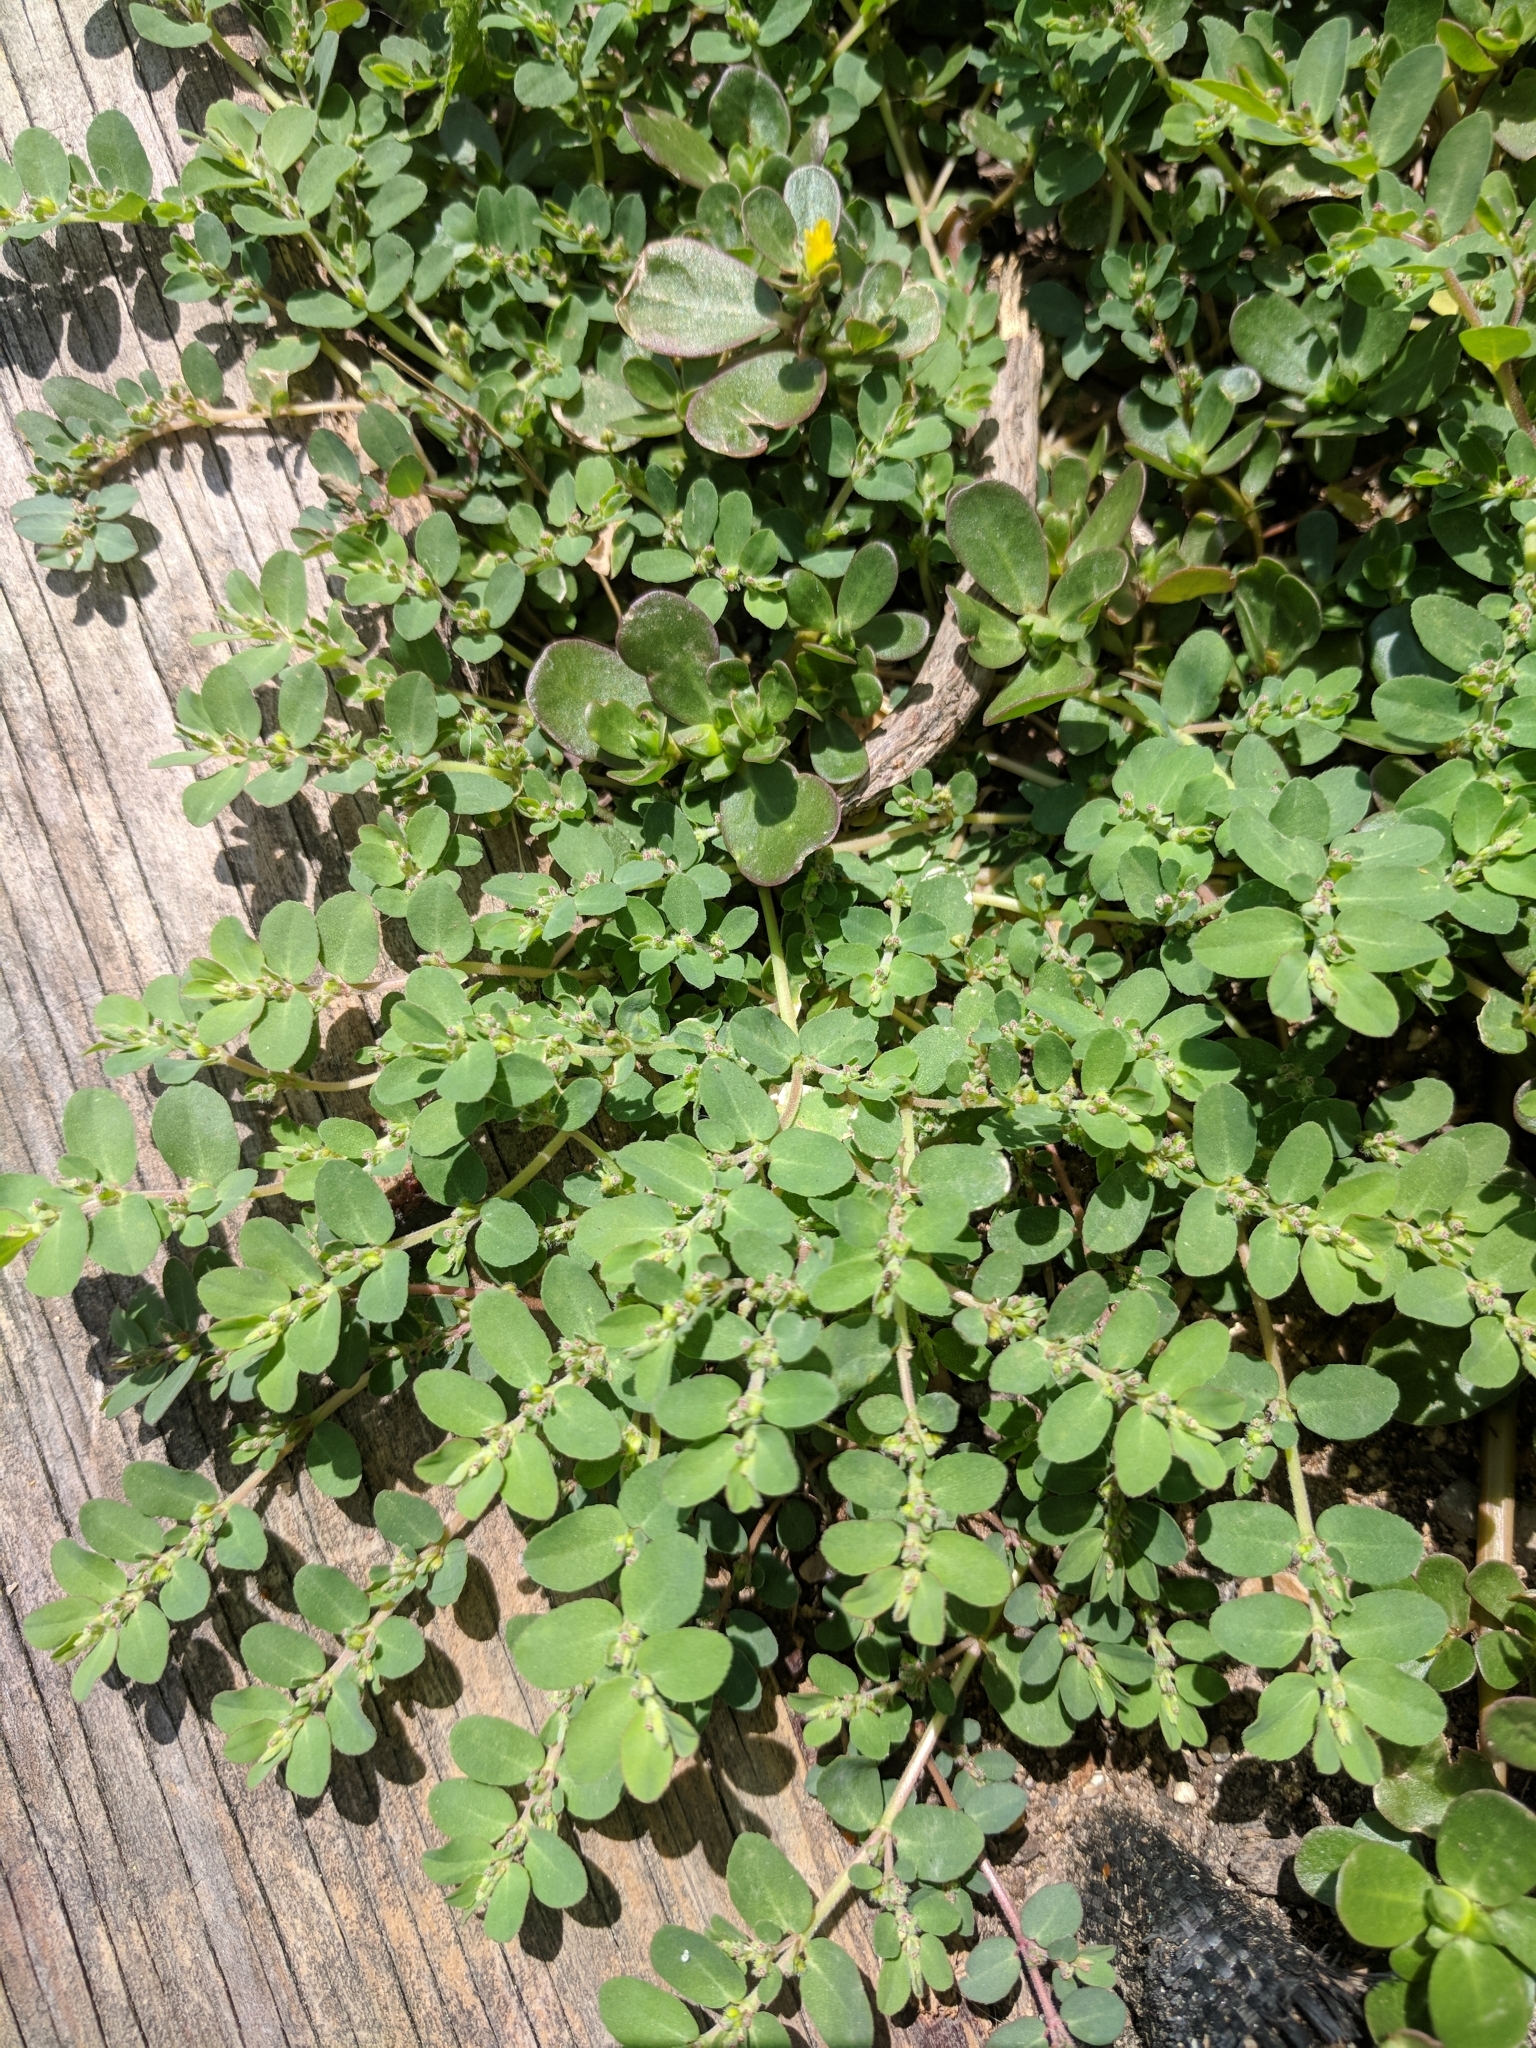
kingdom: Plantae
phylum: Tracheophyta
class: Magnoliopsida
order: Malpighiales
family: Euphorbiaceae
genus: Euphorbia
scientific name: Euphorbia prostrata
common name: Prostrate sandmat
